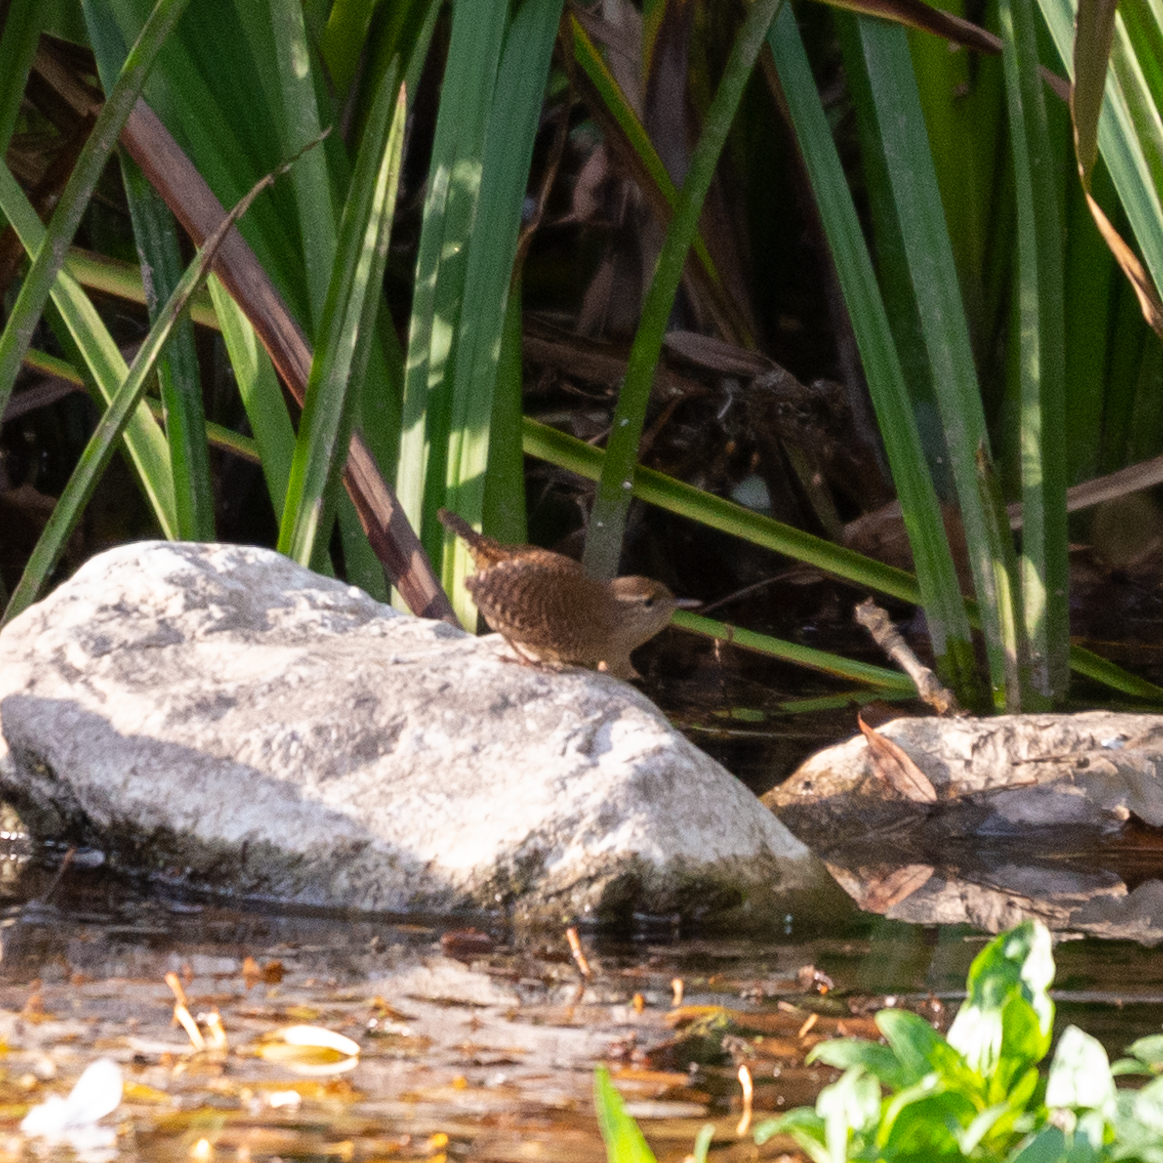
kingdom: Animalia
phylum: Chordata
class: Aves
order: Passeriformes
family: Troglodytidae
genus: Troglodytes
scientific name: Troglodytes troglodytes
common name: Eurasian wren
